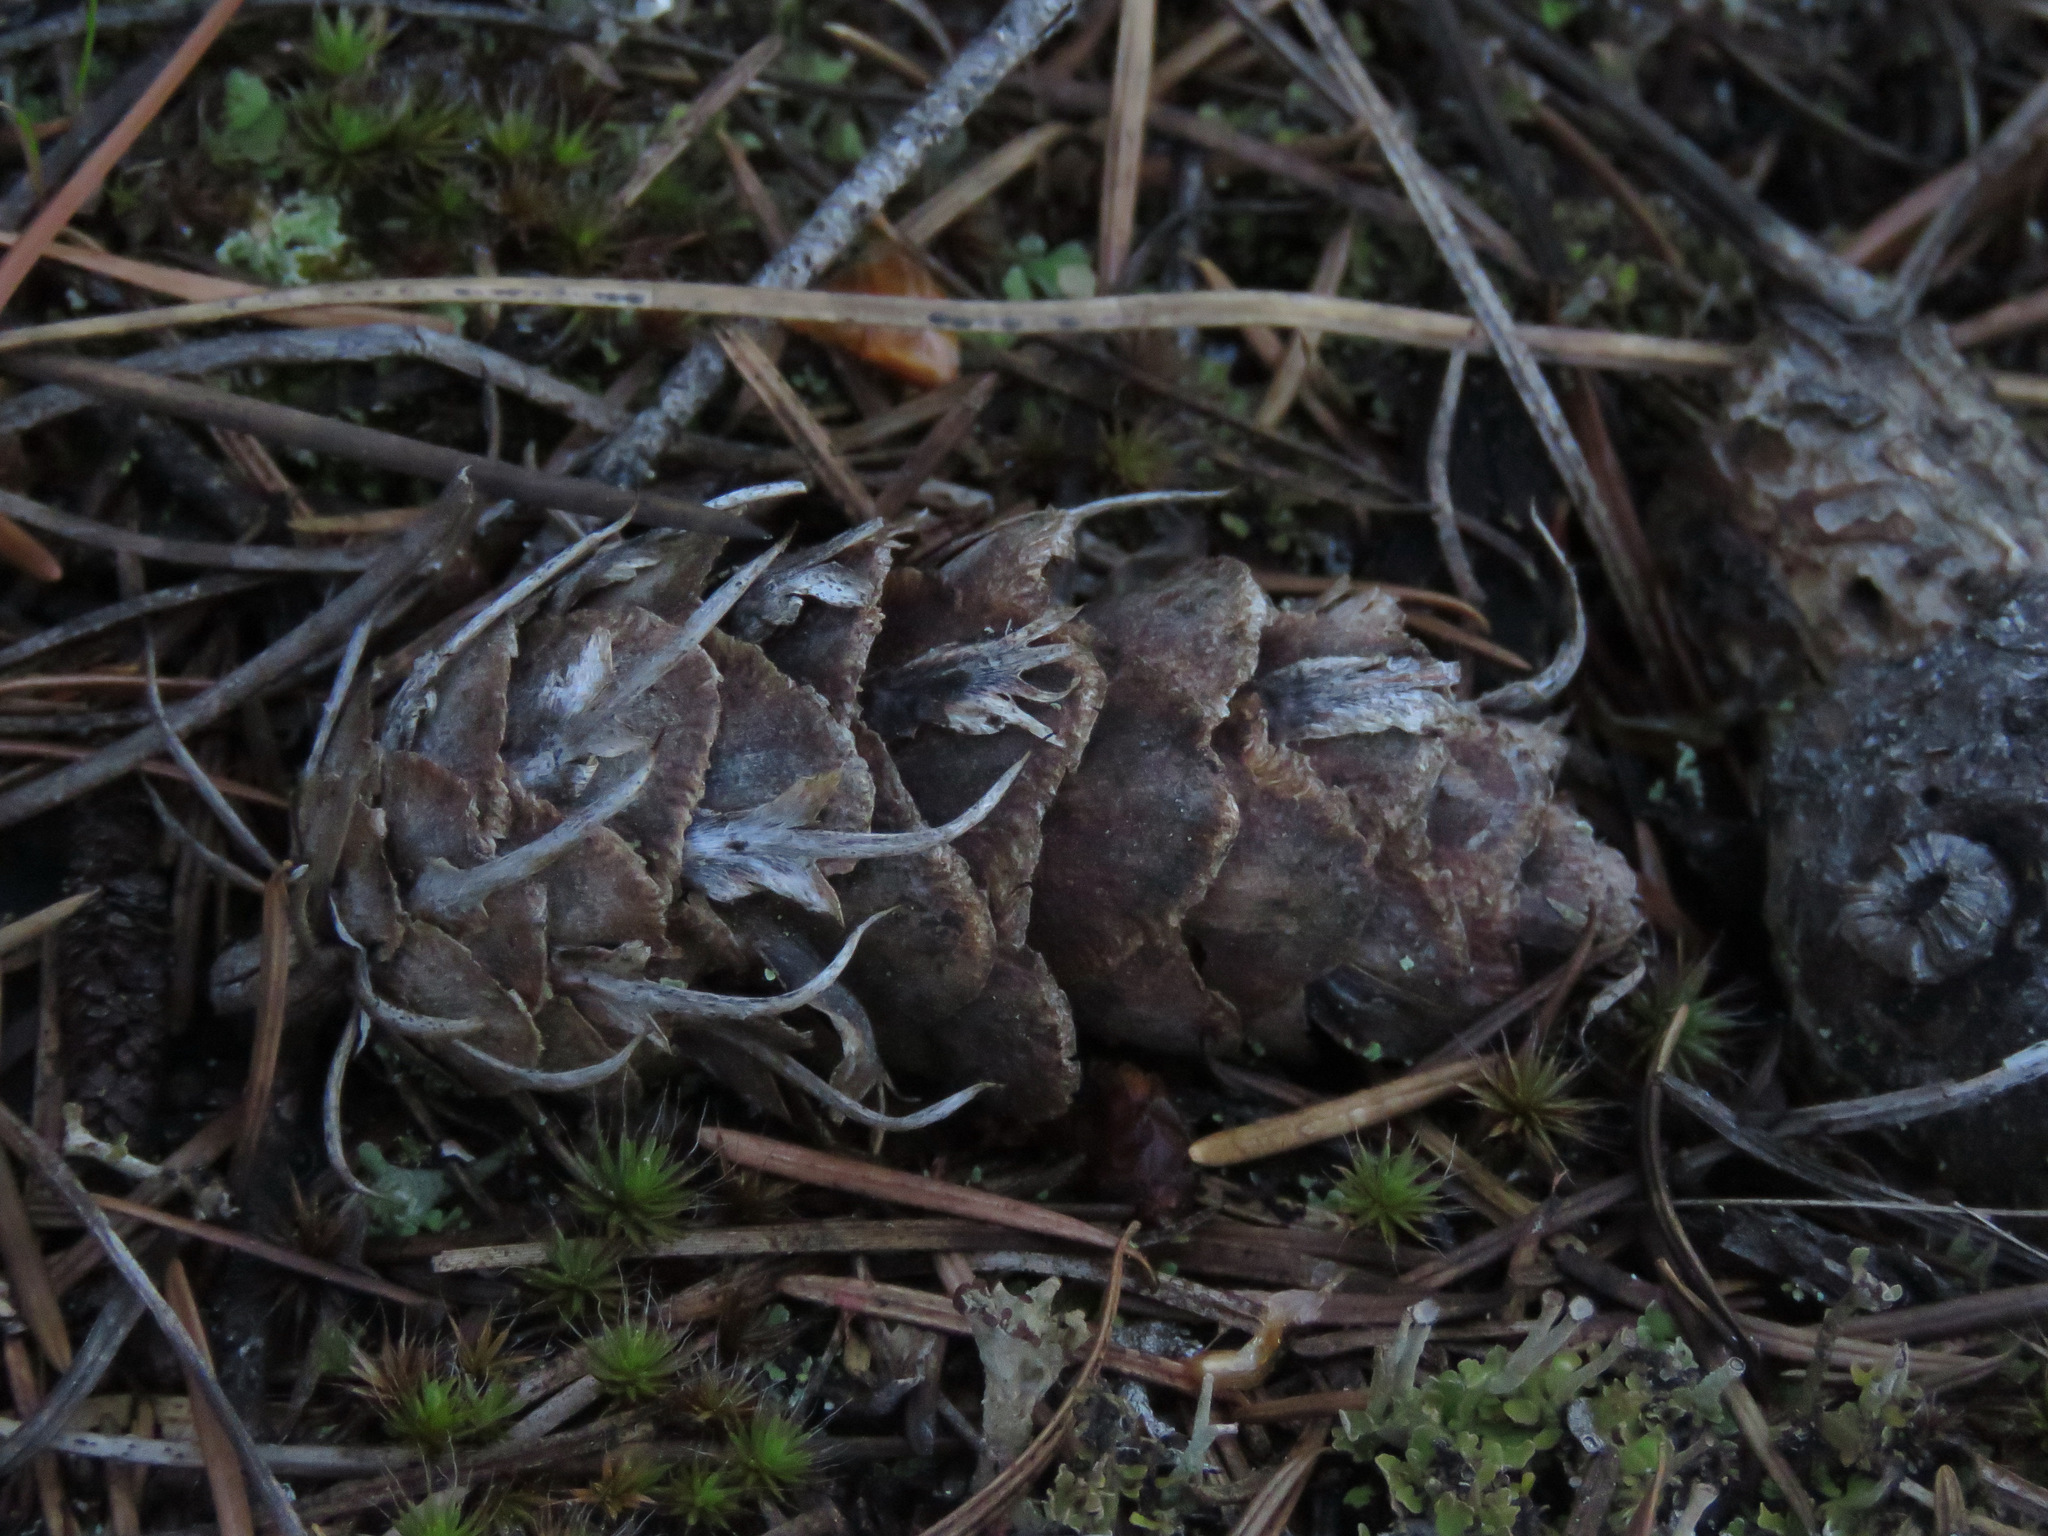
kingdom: Plantae
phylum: Tracheophyta
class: Pinopsida
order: Pinales
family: Pinaceae
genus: Pseudotsuga
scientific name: Pseudotsuga menziesii
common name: Douglas fir
